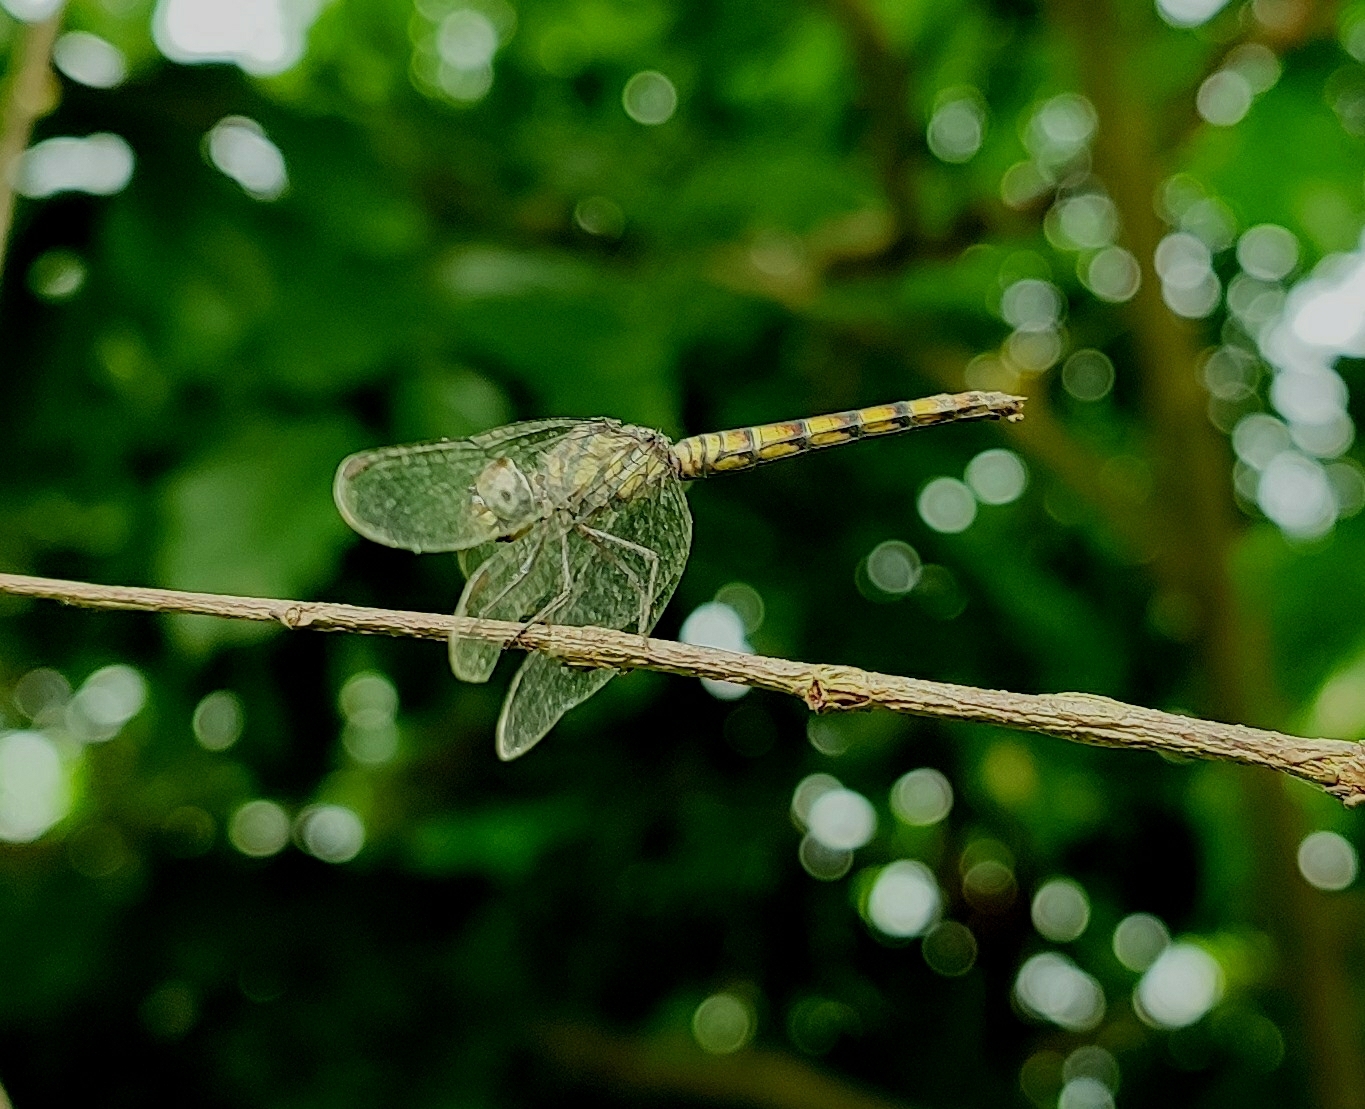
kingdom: Animalia
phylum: Arthropoda
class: Insecta
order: Odonata
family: Libellulidae
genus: Brachydiplax
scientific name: Brachydiplax chalybea
